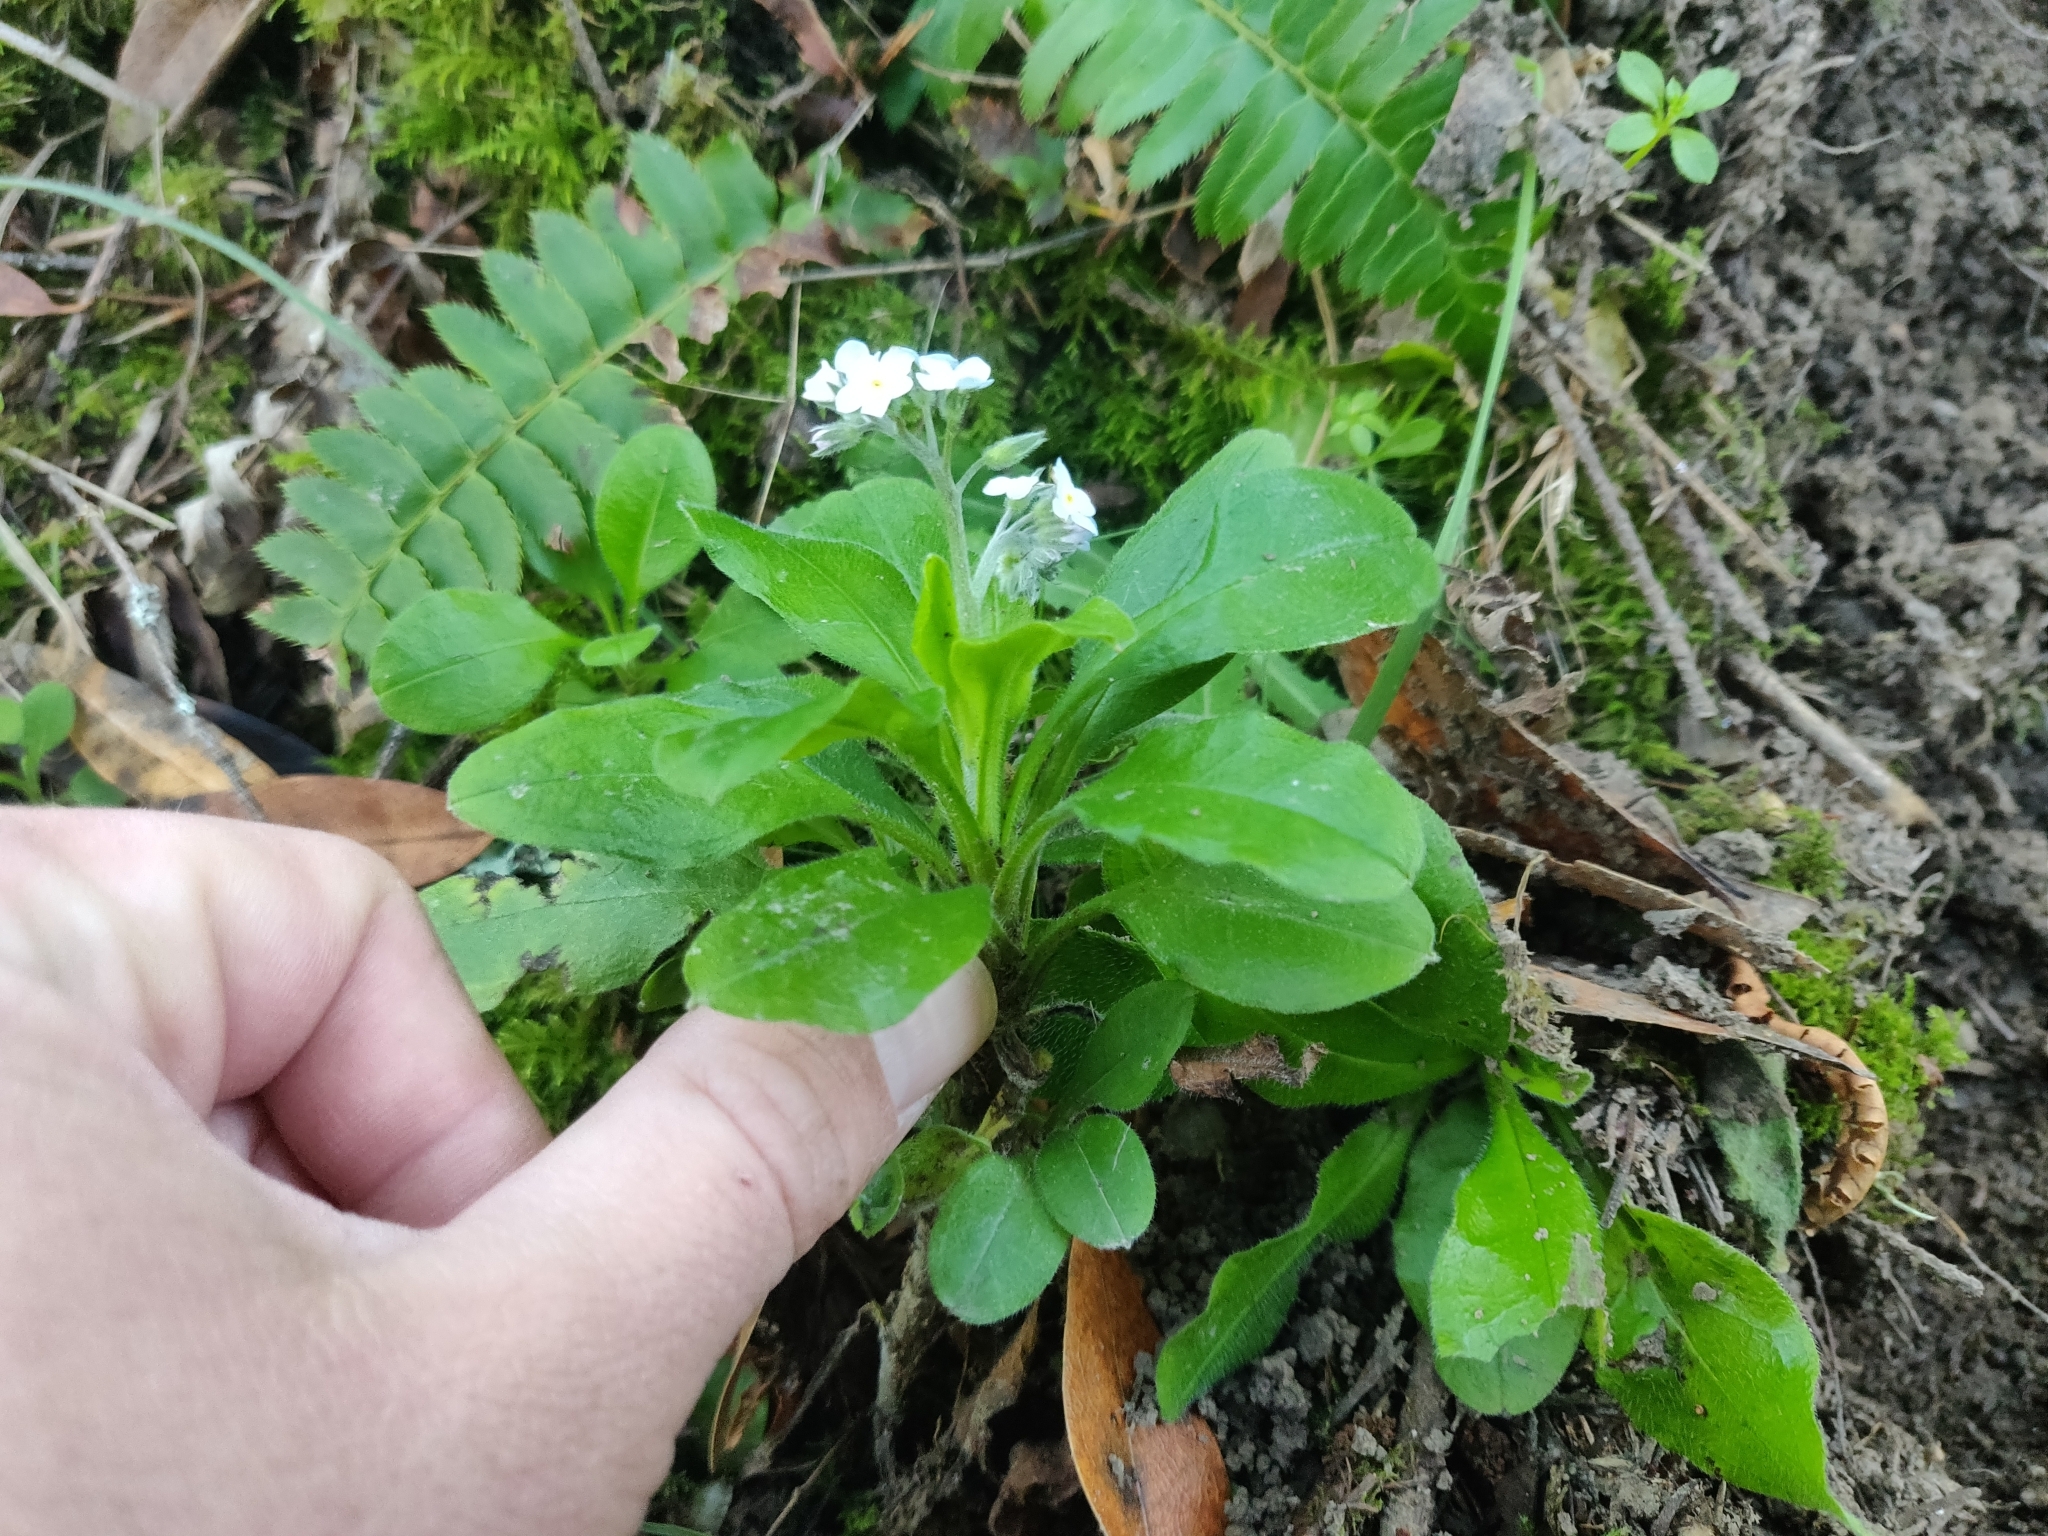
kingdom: Plantae
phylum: Tracheophyta
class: Magnoliopsida
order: Boraginales
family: Boraginaceae
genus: Myosotis
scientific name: Myosotis latifolia
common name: Broadleaf forget-me-not
